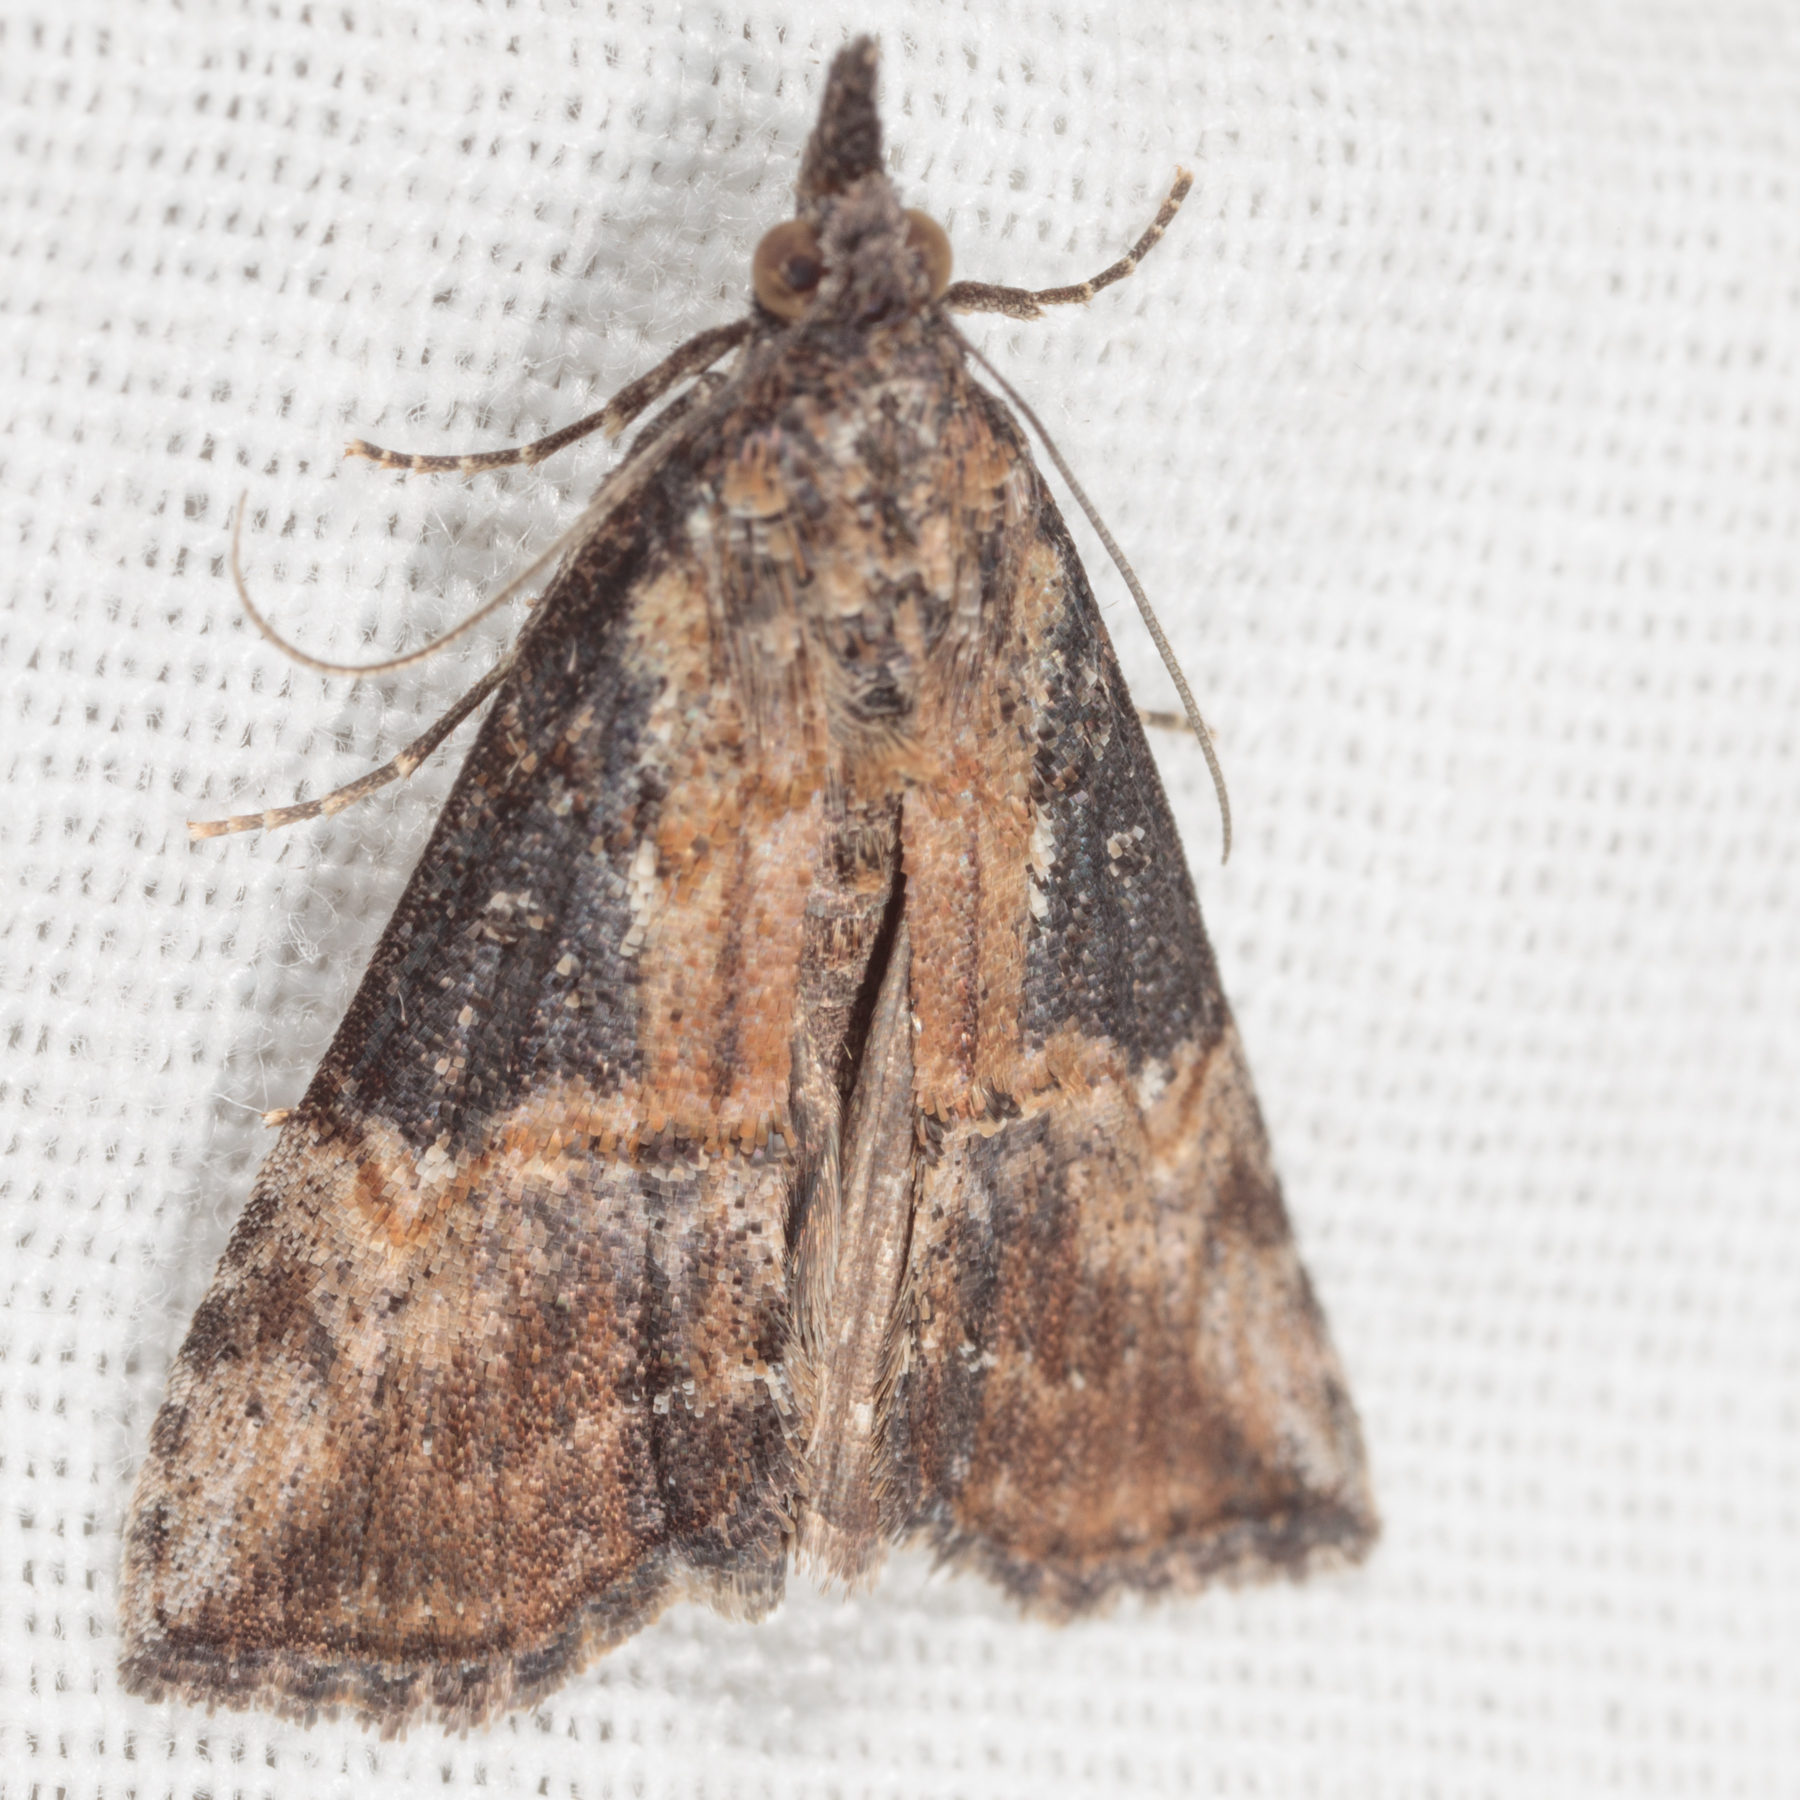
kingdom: Animalia
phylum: Arthropoda
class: Insecta
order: Lepidoptera
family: Erebidae
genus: Hypena
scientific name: Hypena scabra
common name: Green cloverworm
